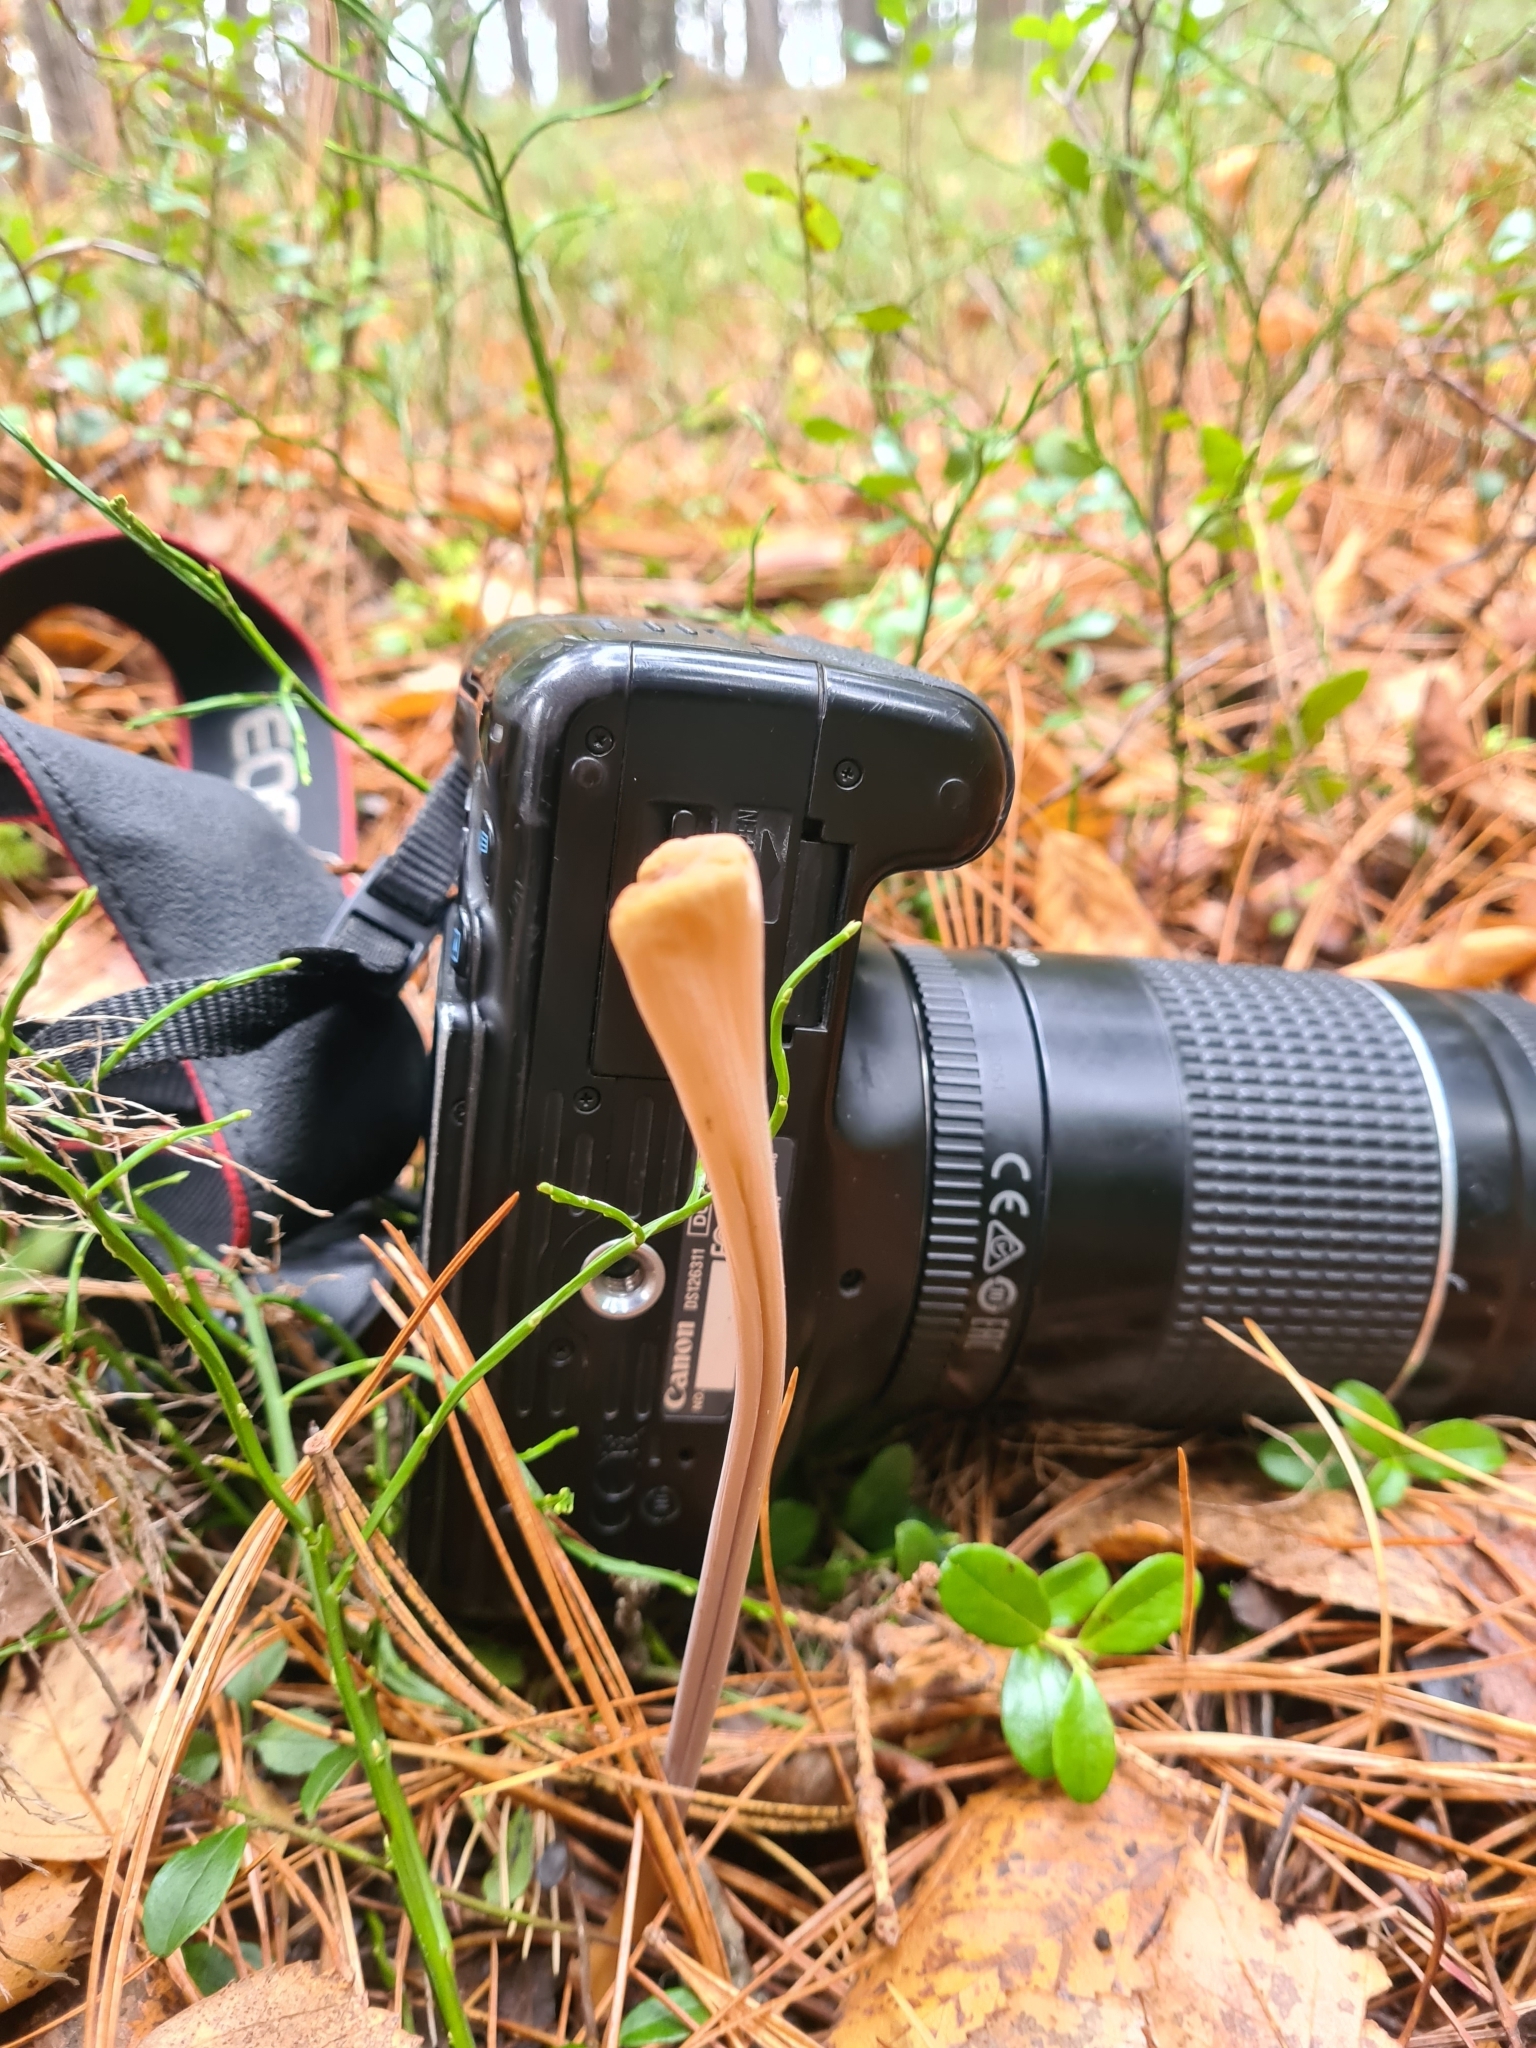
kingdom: Fungi
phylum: Basidiomycota
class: Agaricomycetes
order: Agaricales
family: Typhulaceae
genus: Typhula
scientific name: Typhula fistulosa
